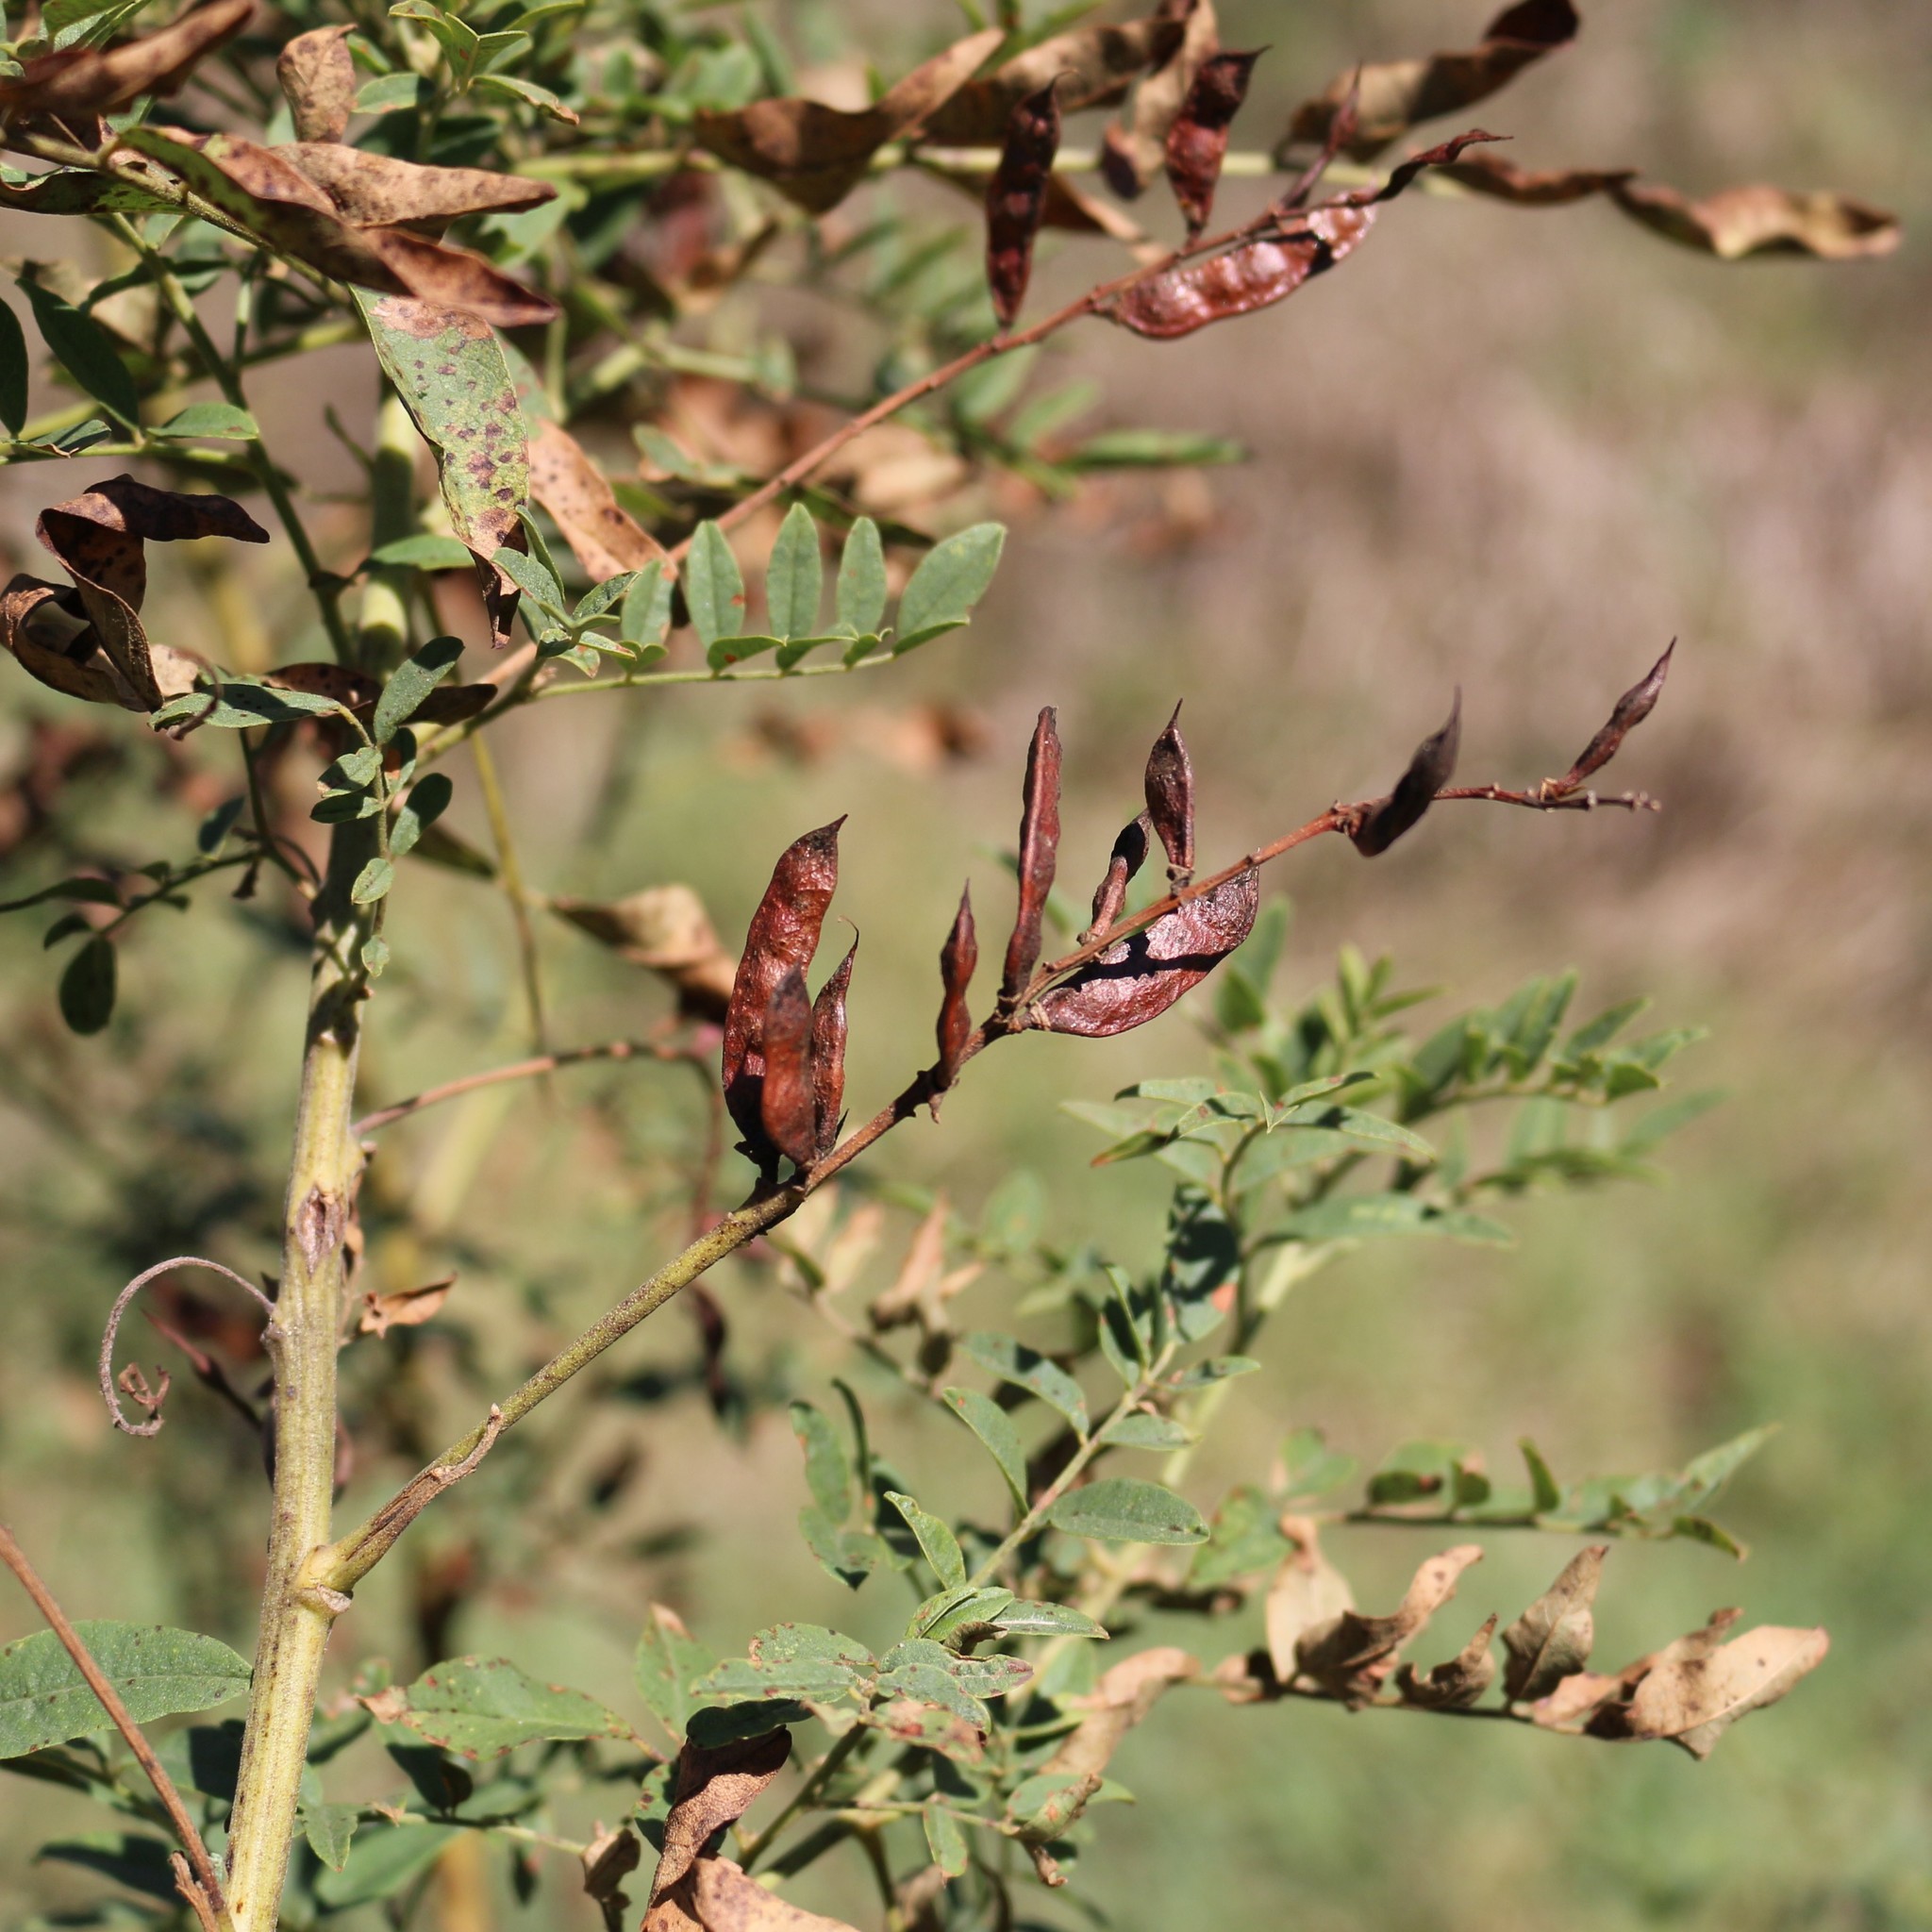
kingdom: Plantae
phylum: Tracheophyta
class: Magnoliopsida
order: Fabales
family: Fabaceae
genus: Glycyrrhiza
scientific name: Glycyrrhiza glabra
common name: Liquorice
